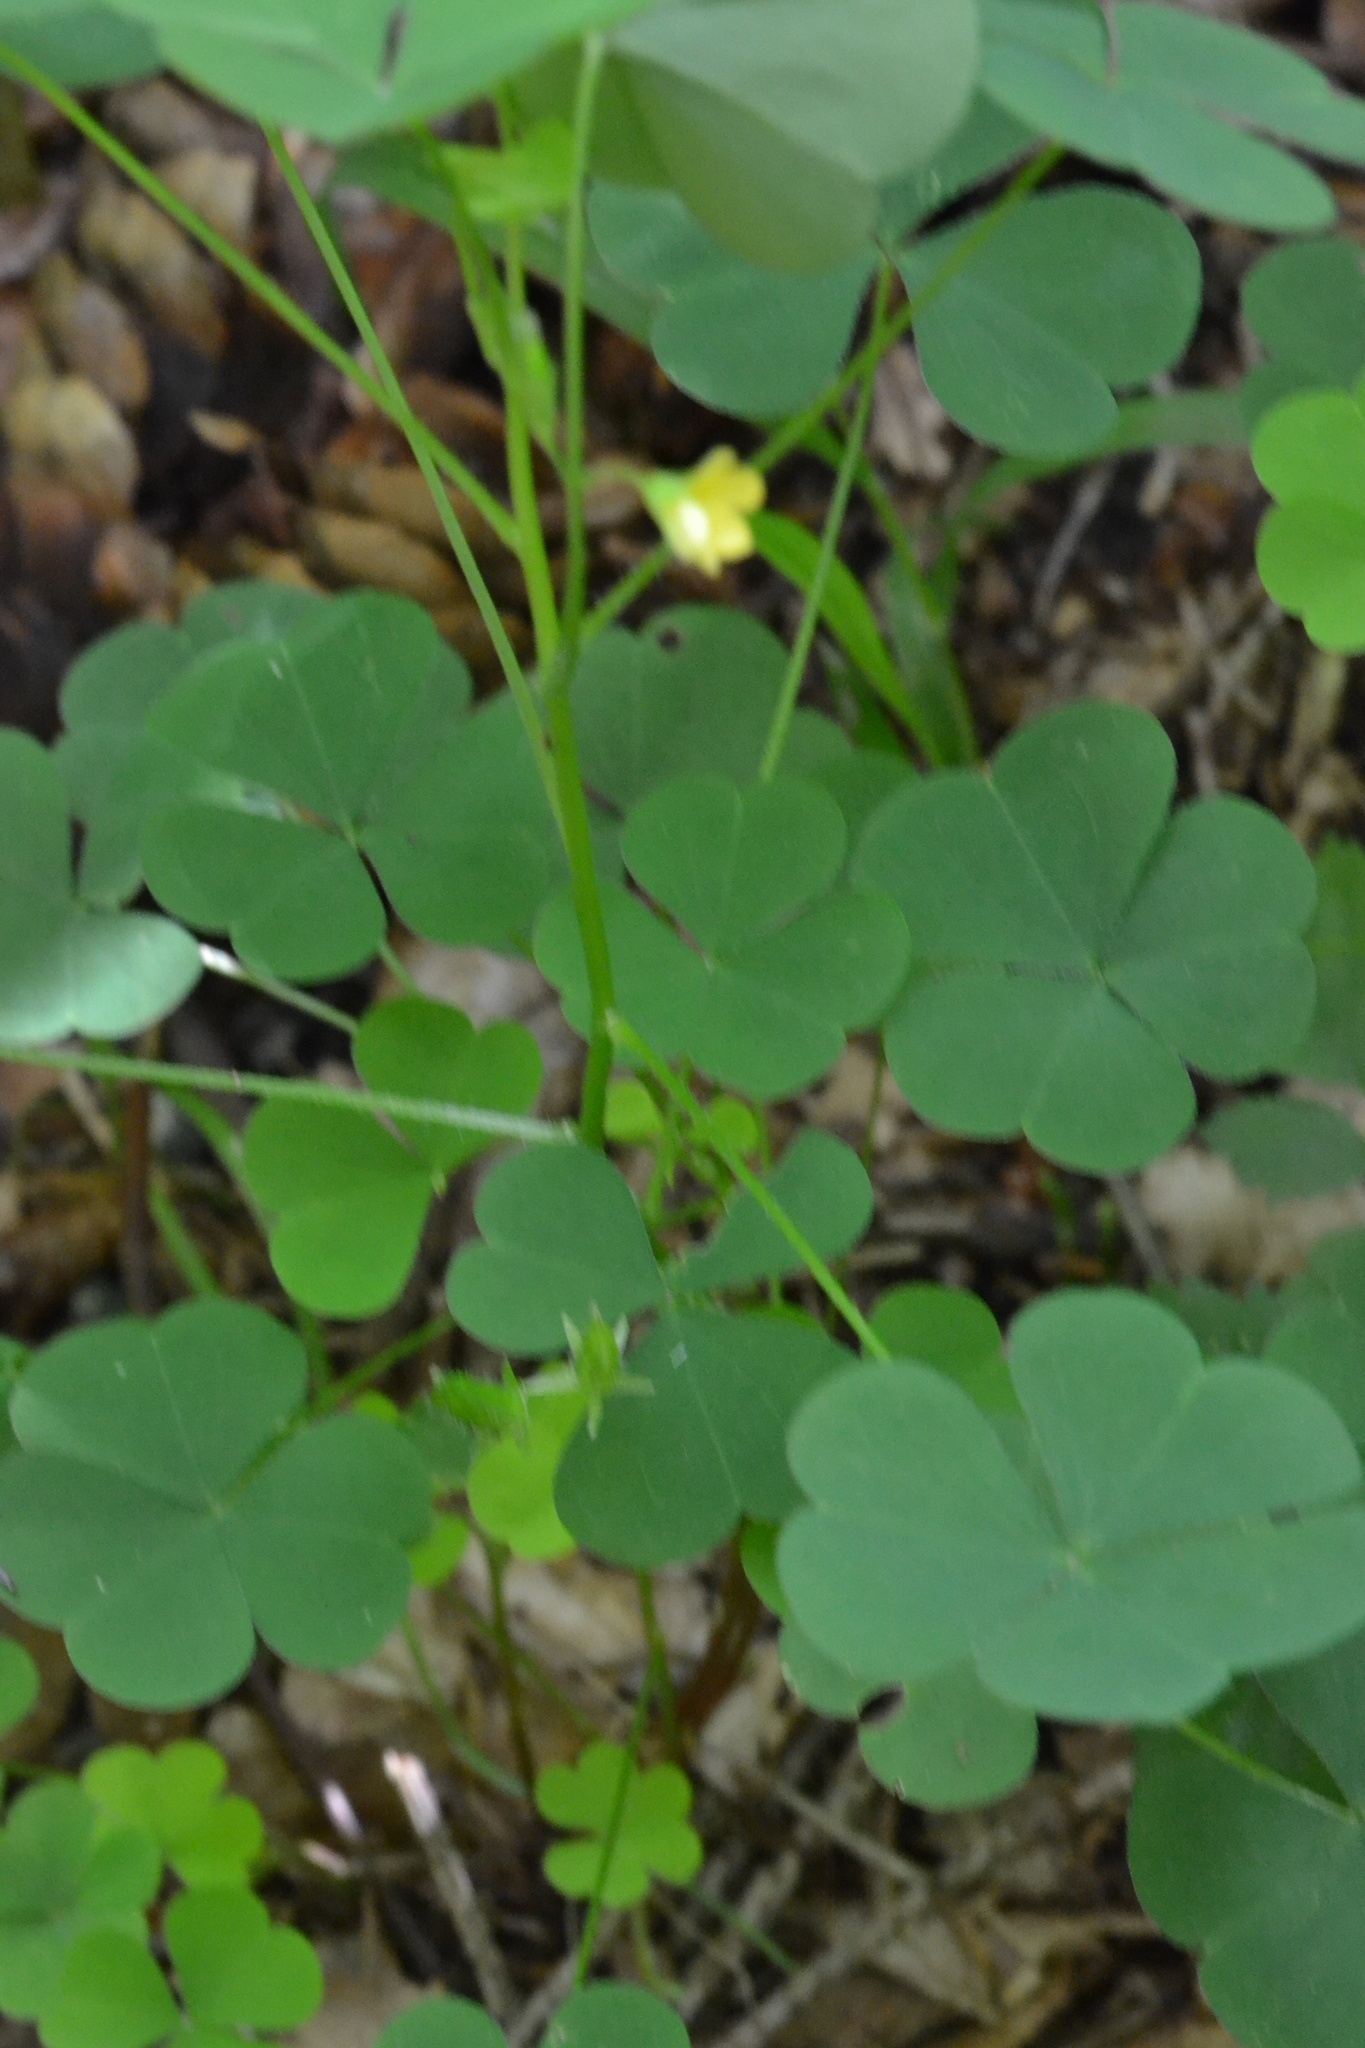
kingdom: Plantae
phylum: Tracheophyta
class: Magnoliopsida
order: Oxalidales
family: Oxalidaceae
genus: Oxalis
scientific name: Oxalis stricta
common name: Upright yellow-sorrel
